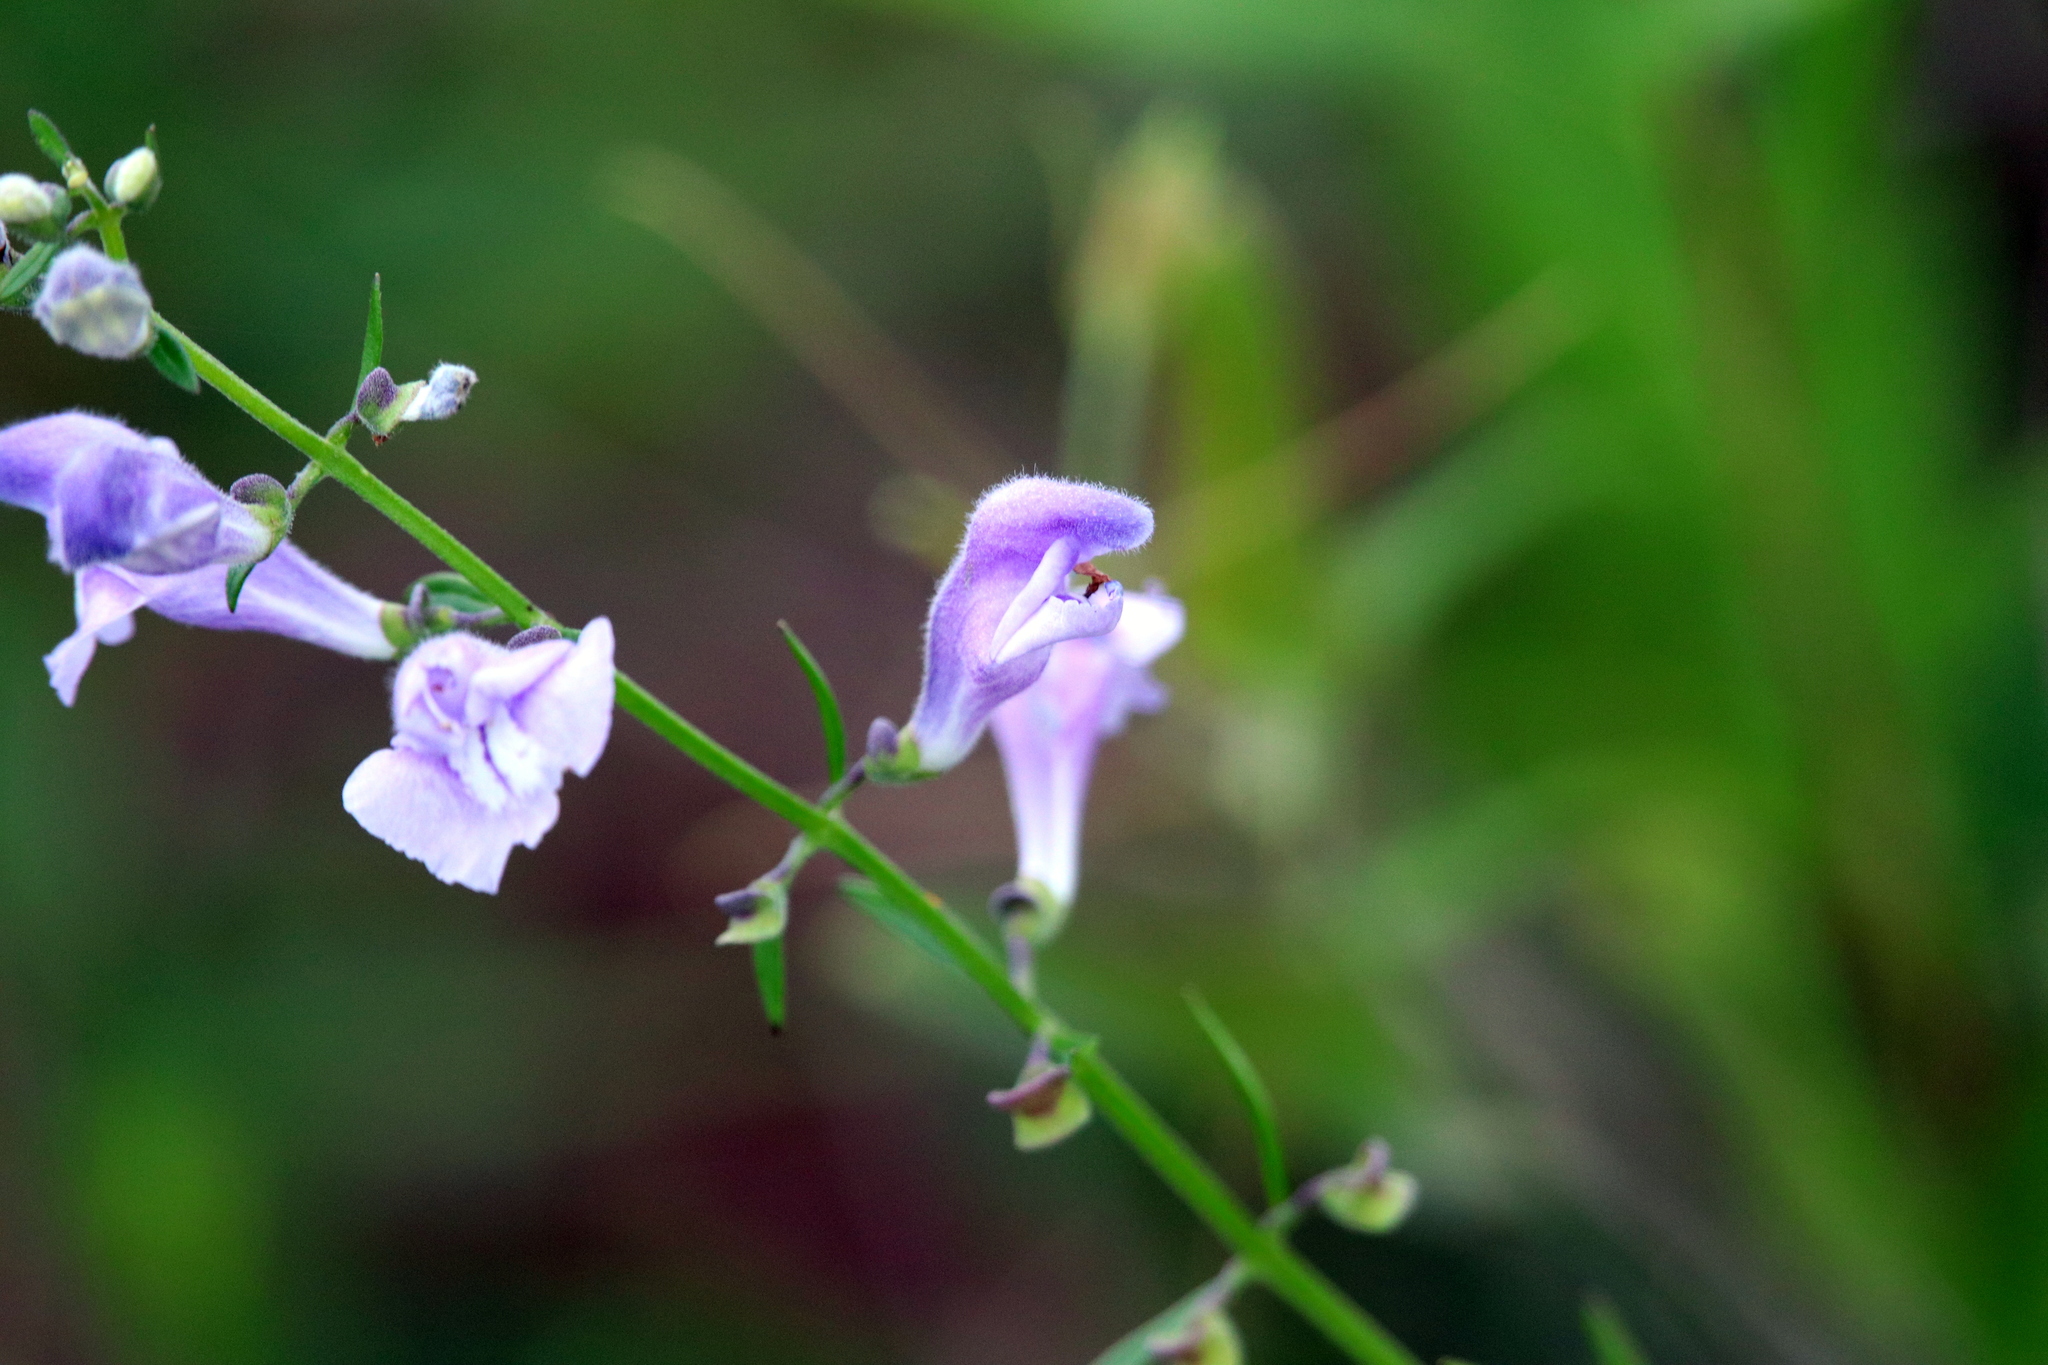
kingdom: Plantae
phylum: Tracheophyta
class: Magnoliopsida
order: Lamiales
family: Lamiaceae
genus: Scutellaria
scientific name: Scutellaria integrifolia
